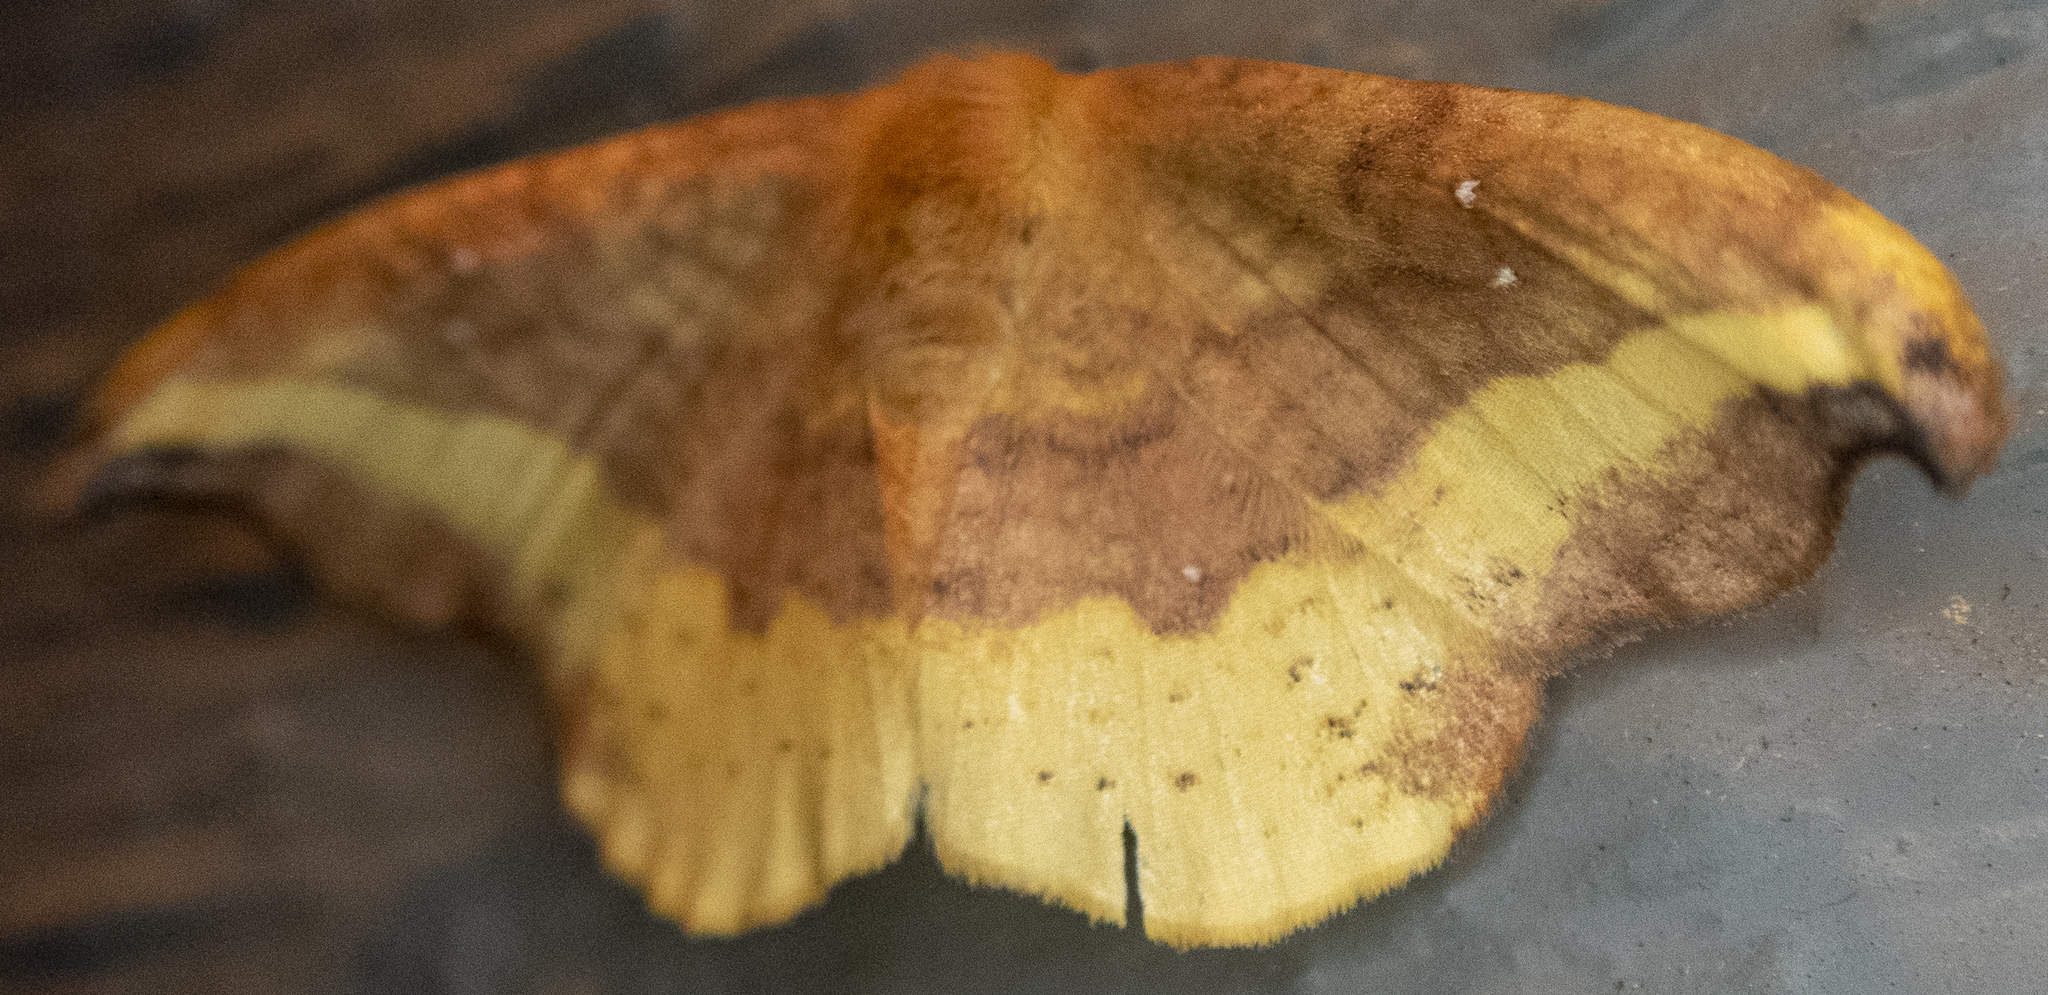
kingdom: Animalia
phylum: Arthropoda
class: Insecta
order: Lepidoptera
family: Drepanidae
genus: Oreta
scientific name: Oreta rosea
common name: Rose hooktip
